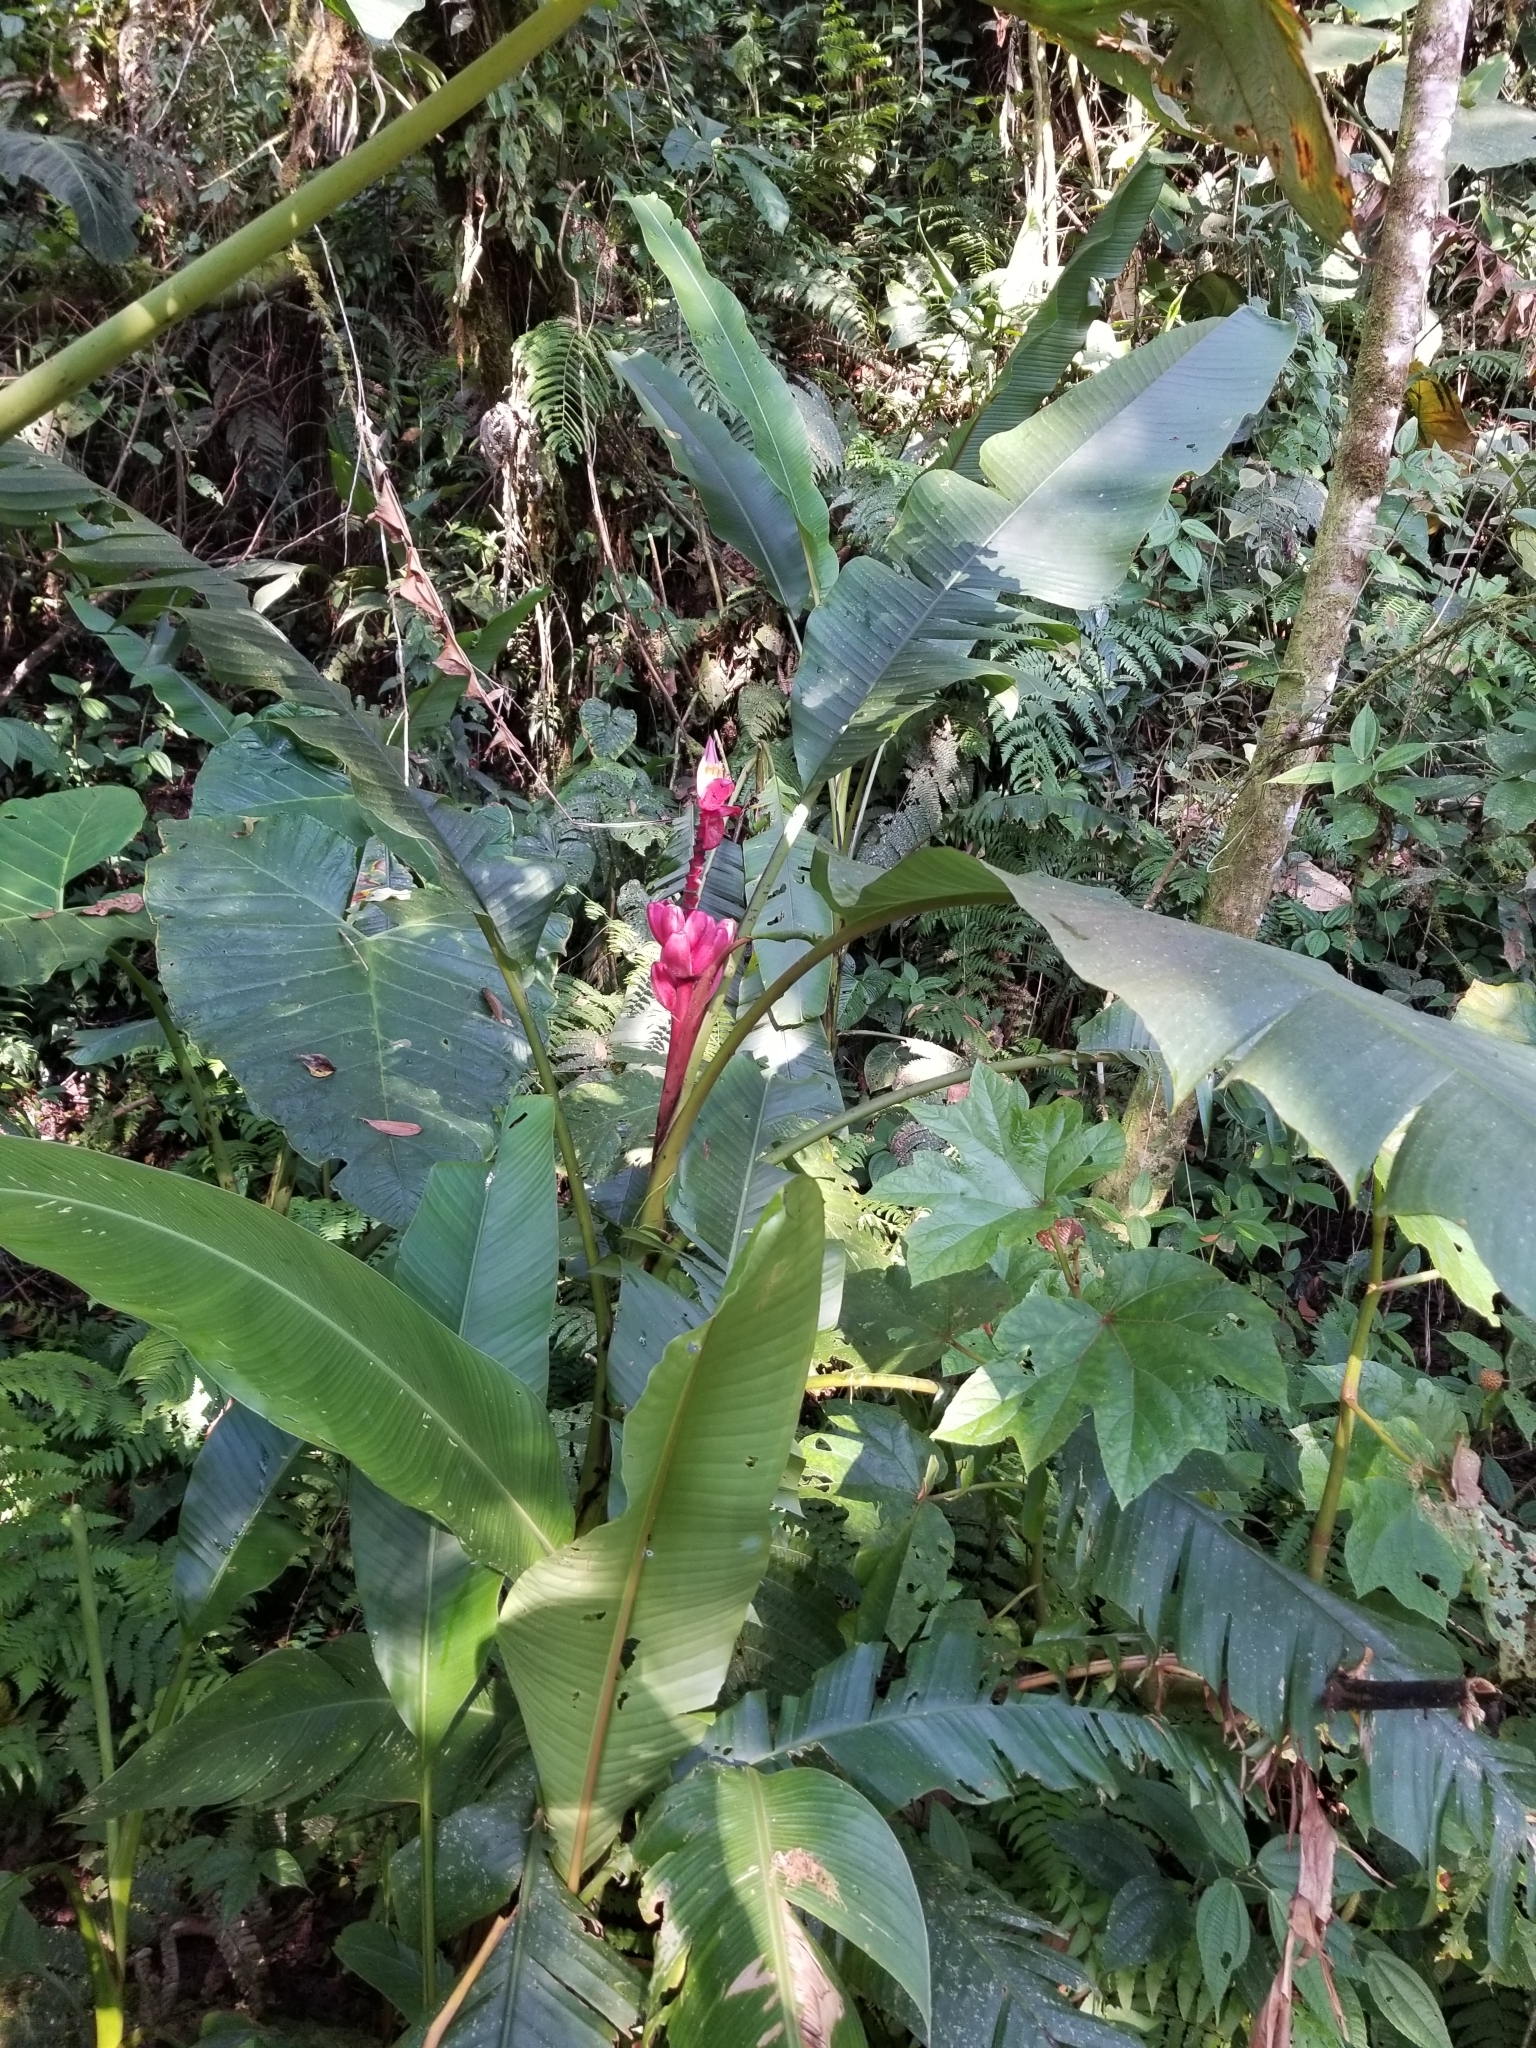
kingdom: Plantae
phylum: Tracheophyta
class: Liliopsida
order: Zingiberales
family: Musaceae
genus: Musa
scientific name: Musa velutina
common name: Pink velvet banana
